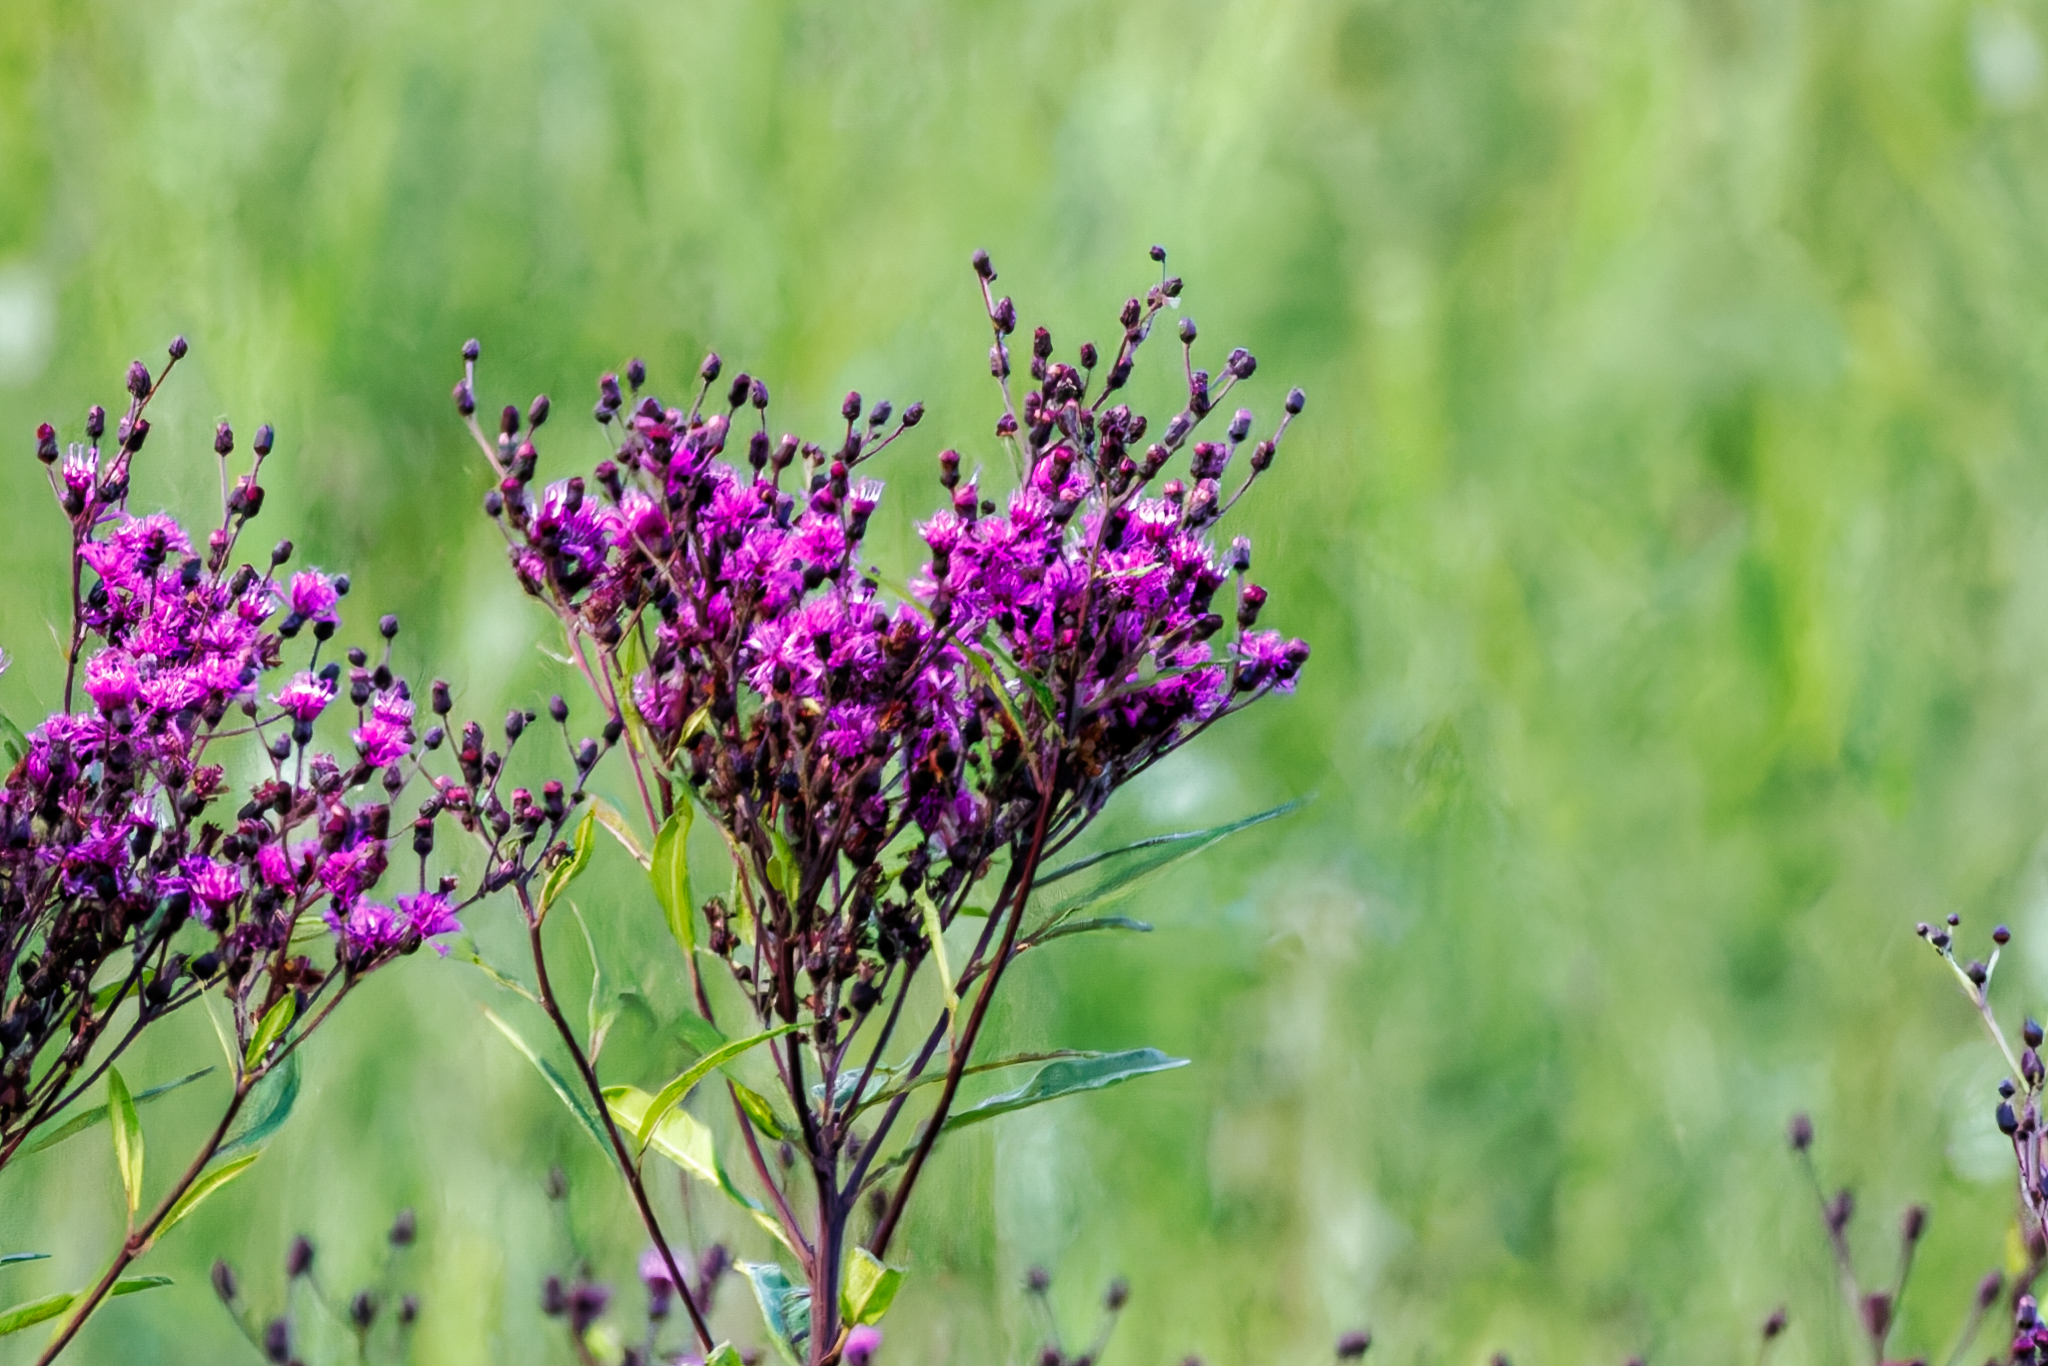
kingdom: Plantae
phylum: Tracheophyta
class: Magnoliopsida
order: Asterales
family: Asteraceae
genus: Vernonia
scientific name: Vernonia gigantea
